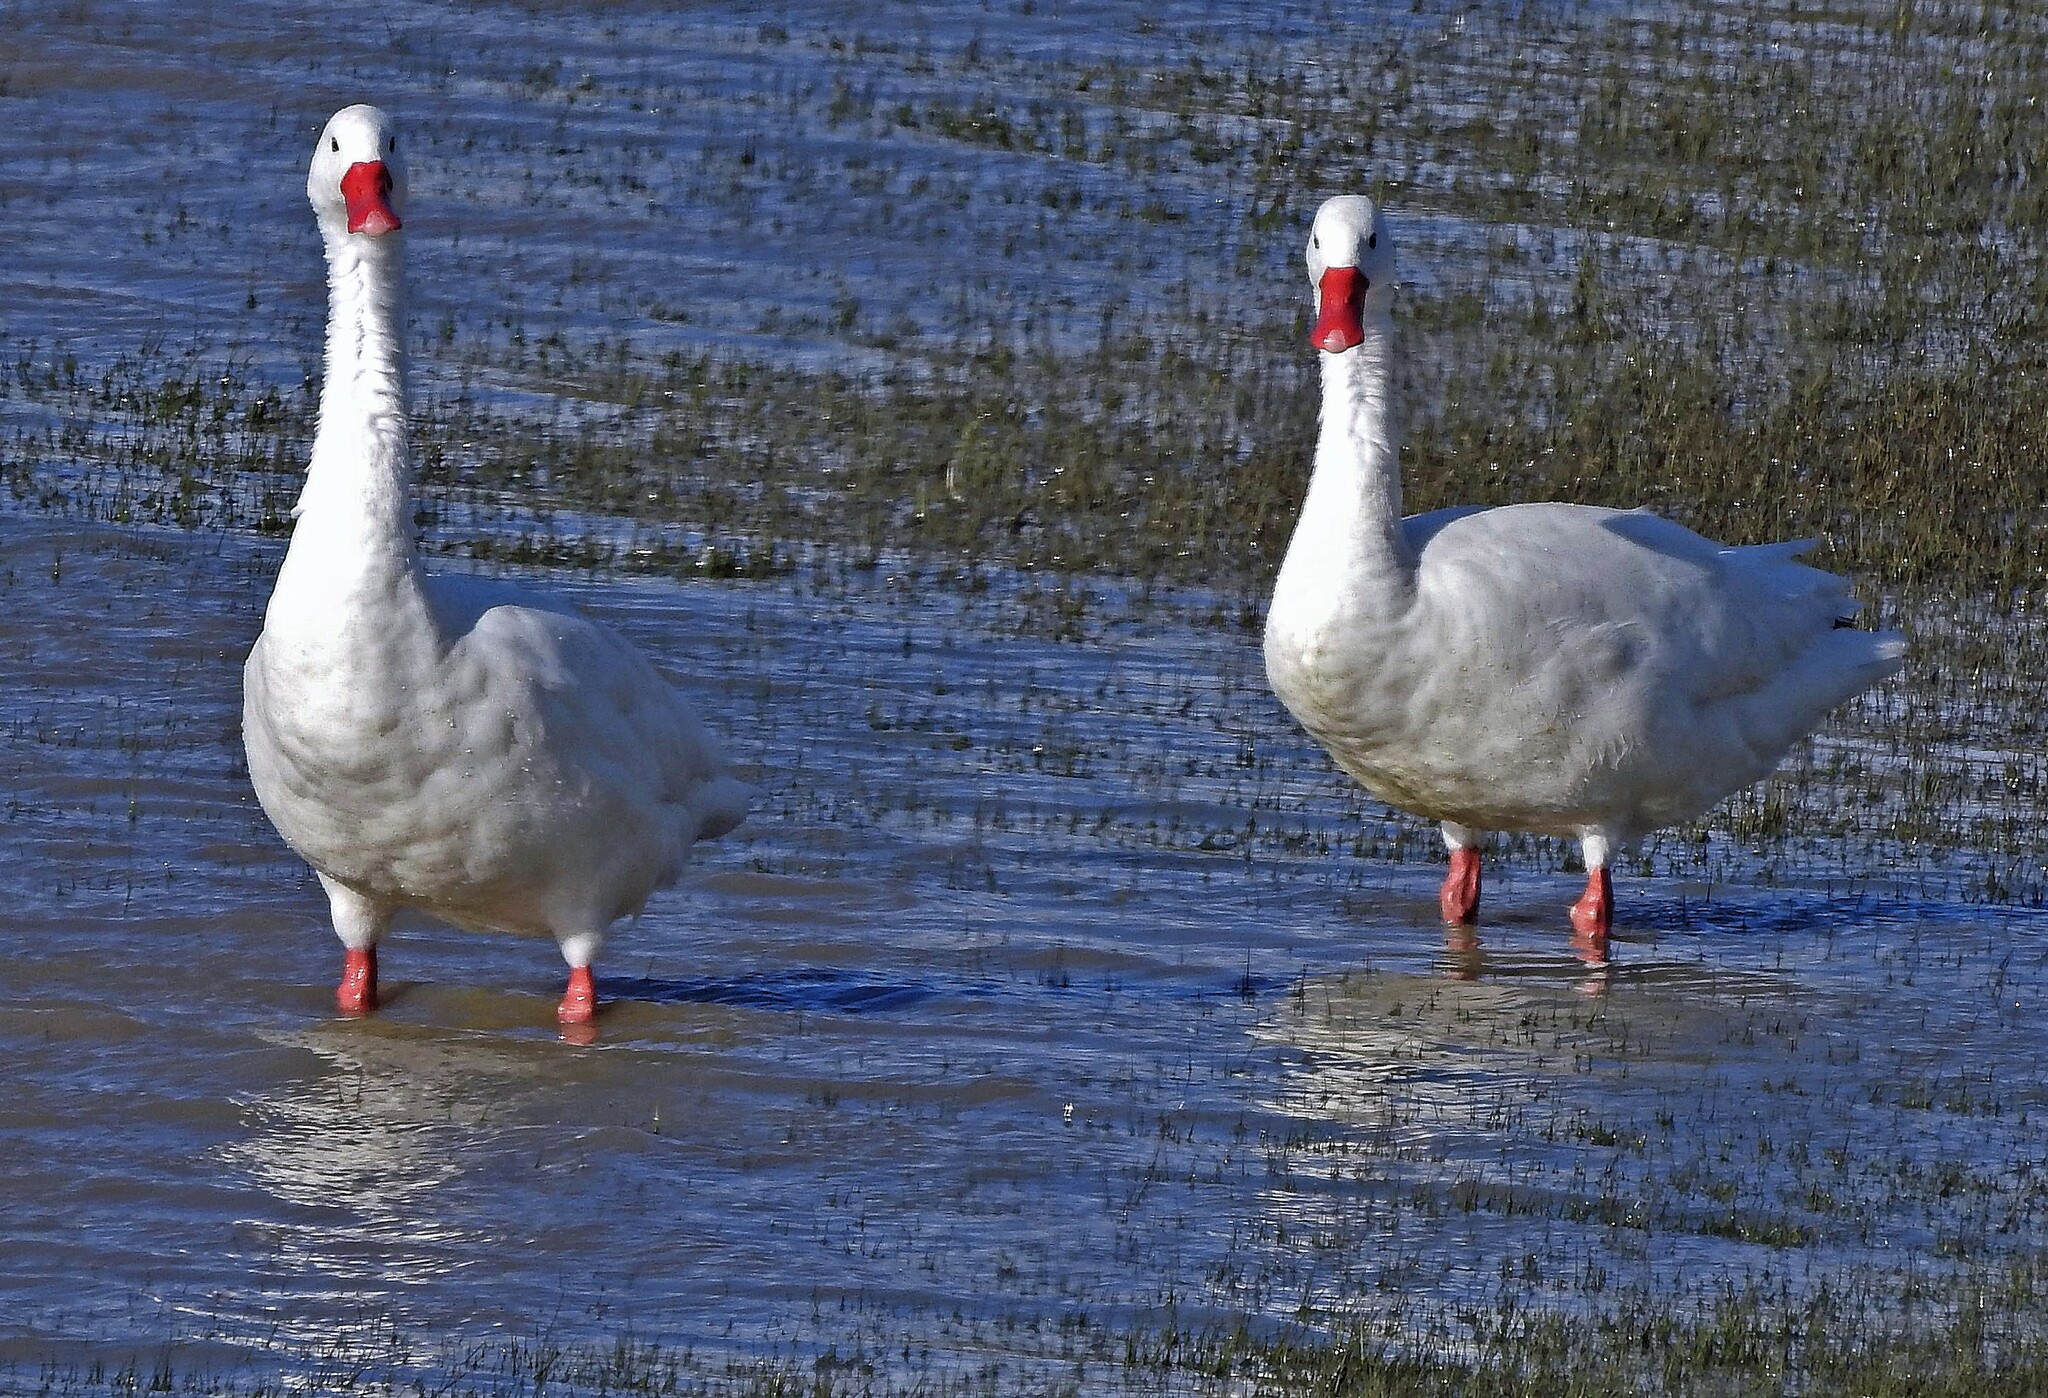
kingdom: Animalia
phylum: Chordata
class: Aves
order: Anseriformes
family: Anatidae
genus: Coscoroba
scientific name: Coscoroba coscoroba
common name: Coscoroba swan
